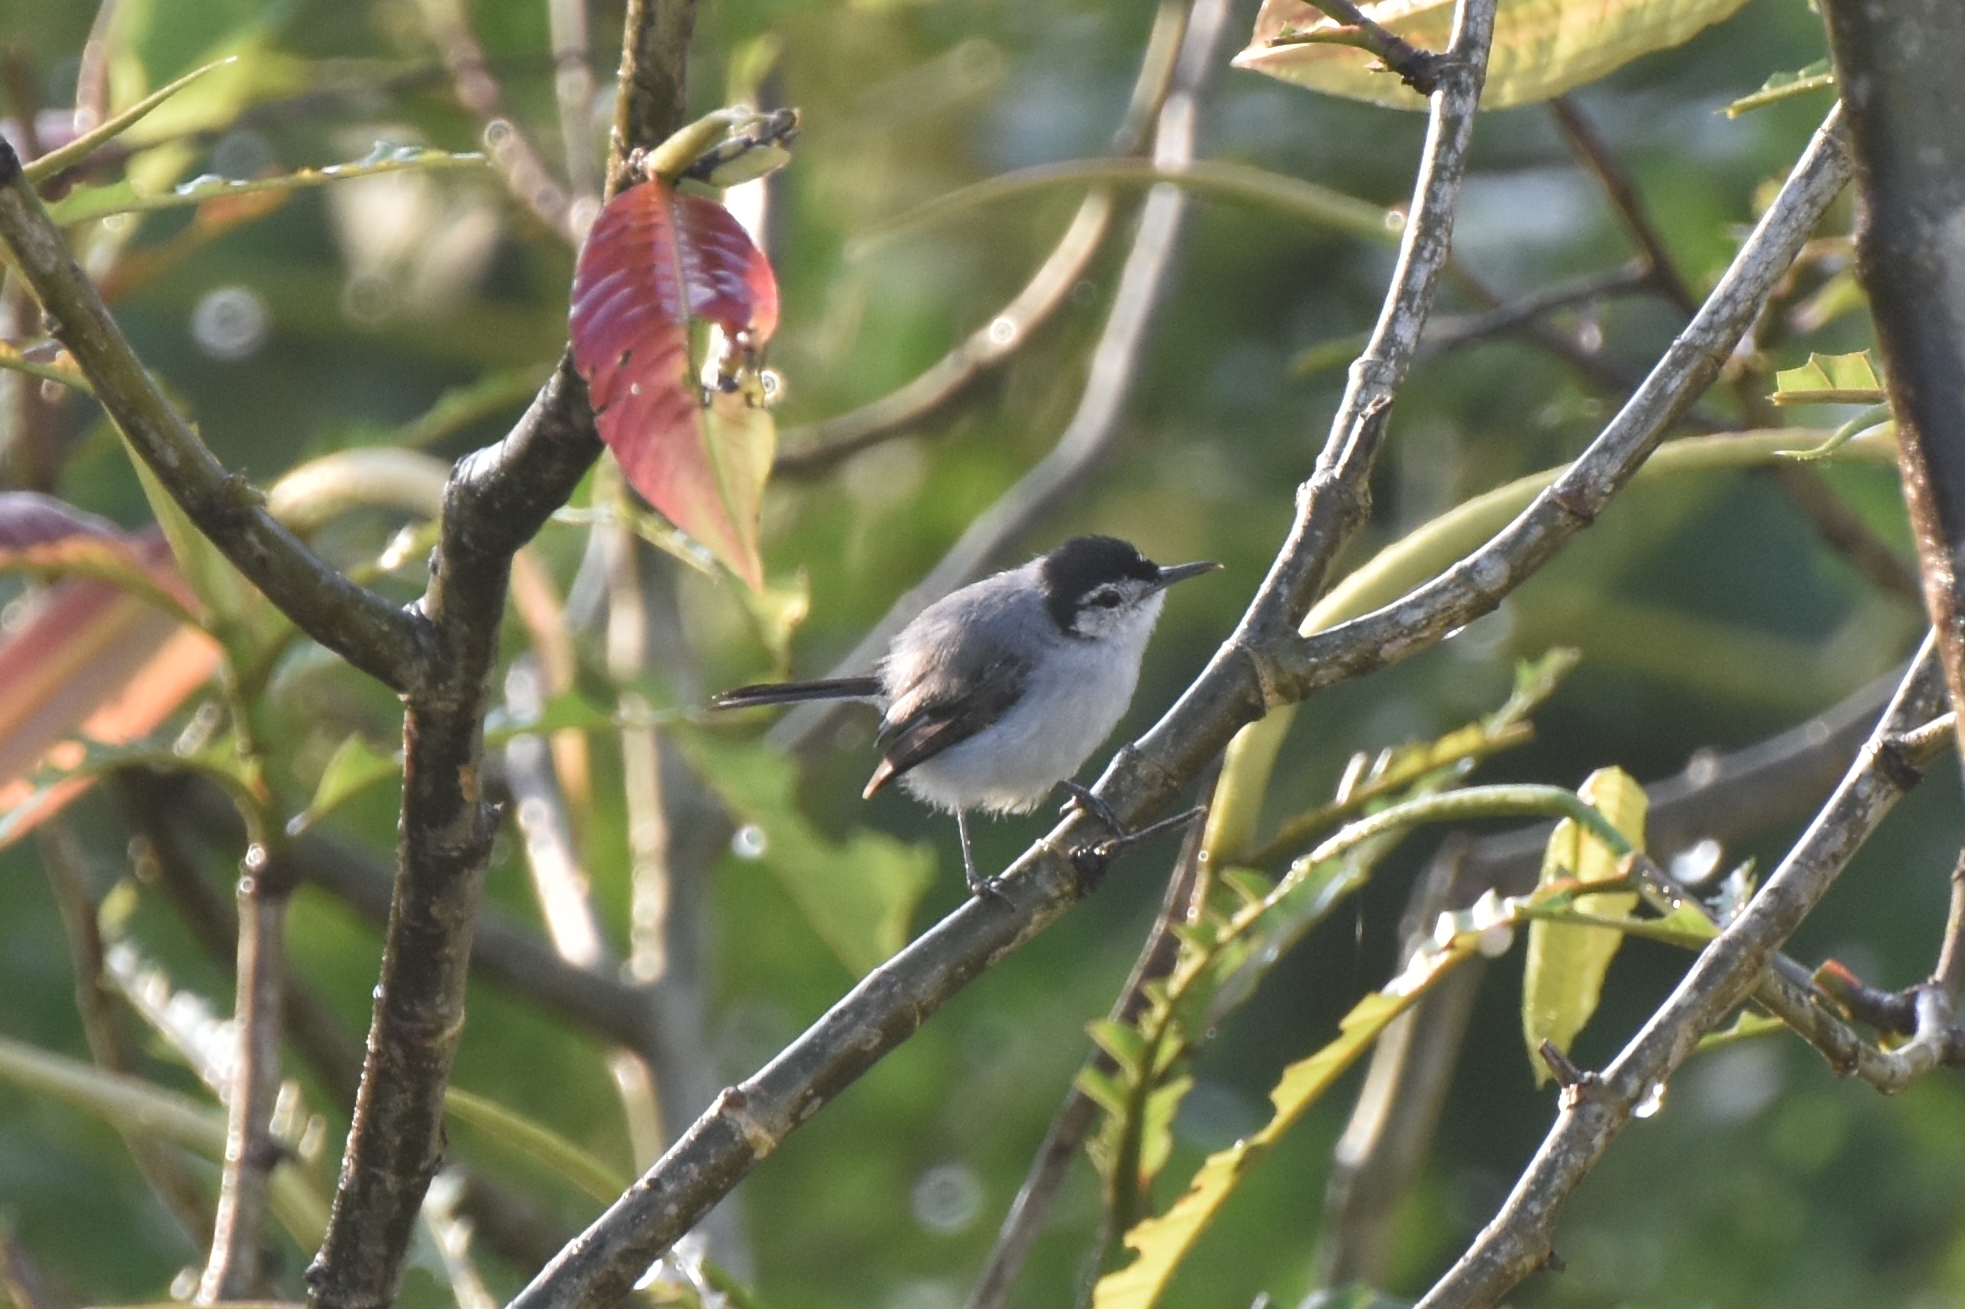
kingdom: Animalia
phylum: Chordata
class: Aves
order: Passeriformes
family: Polioptilidae
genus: Polioptila
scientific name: Polioptila plumbea
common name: Tropical gnatcatcher
